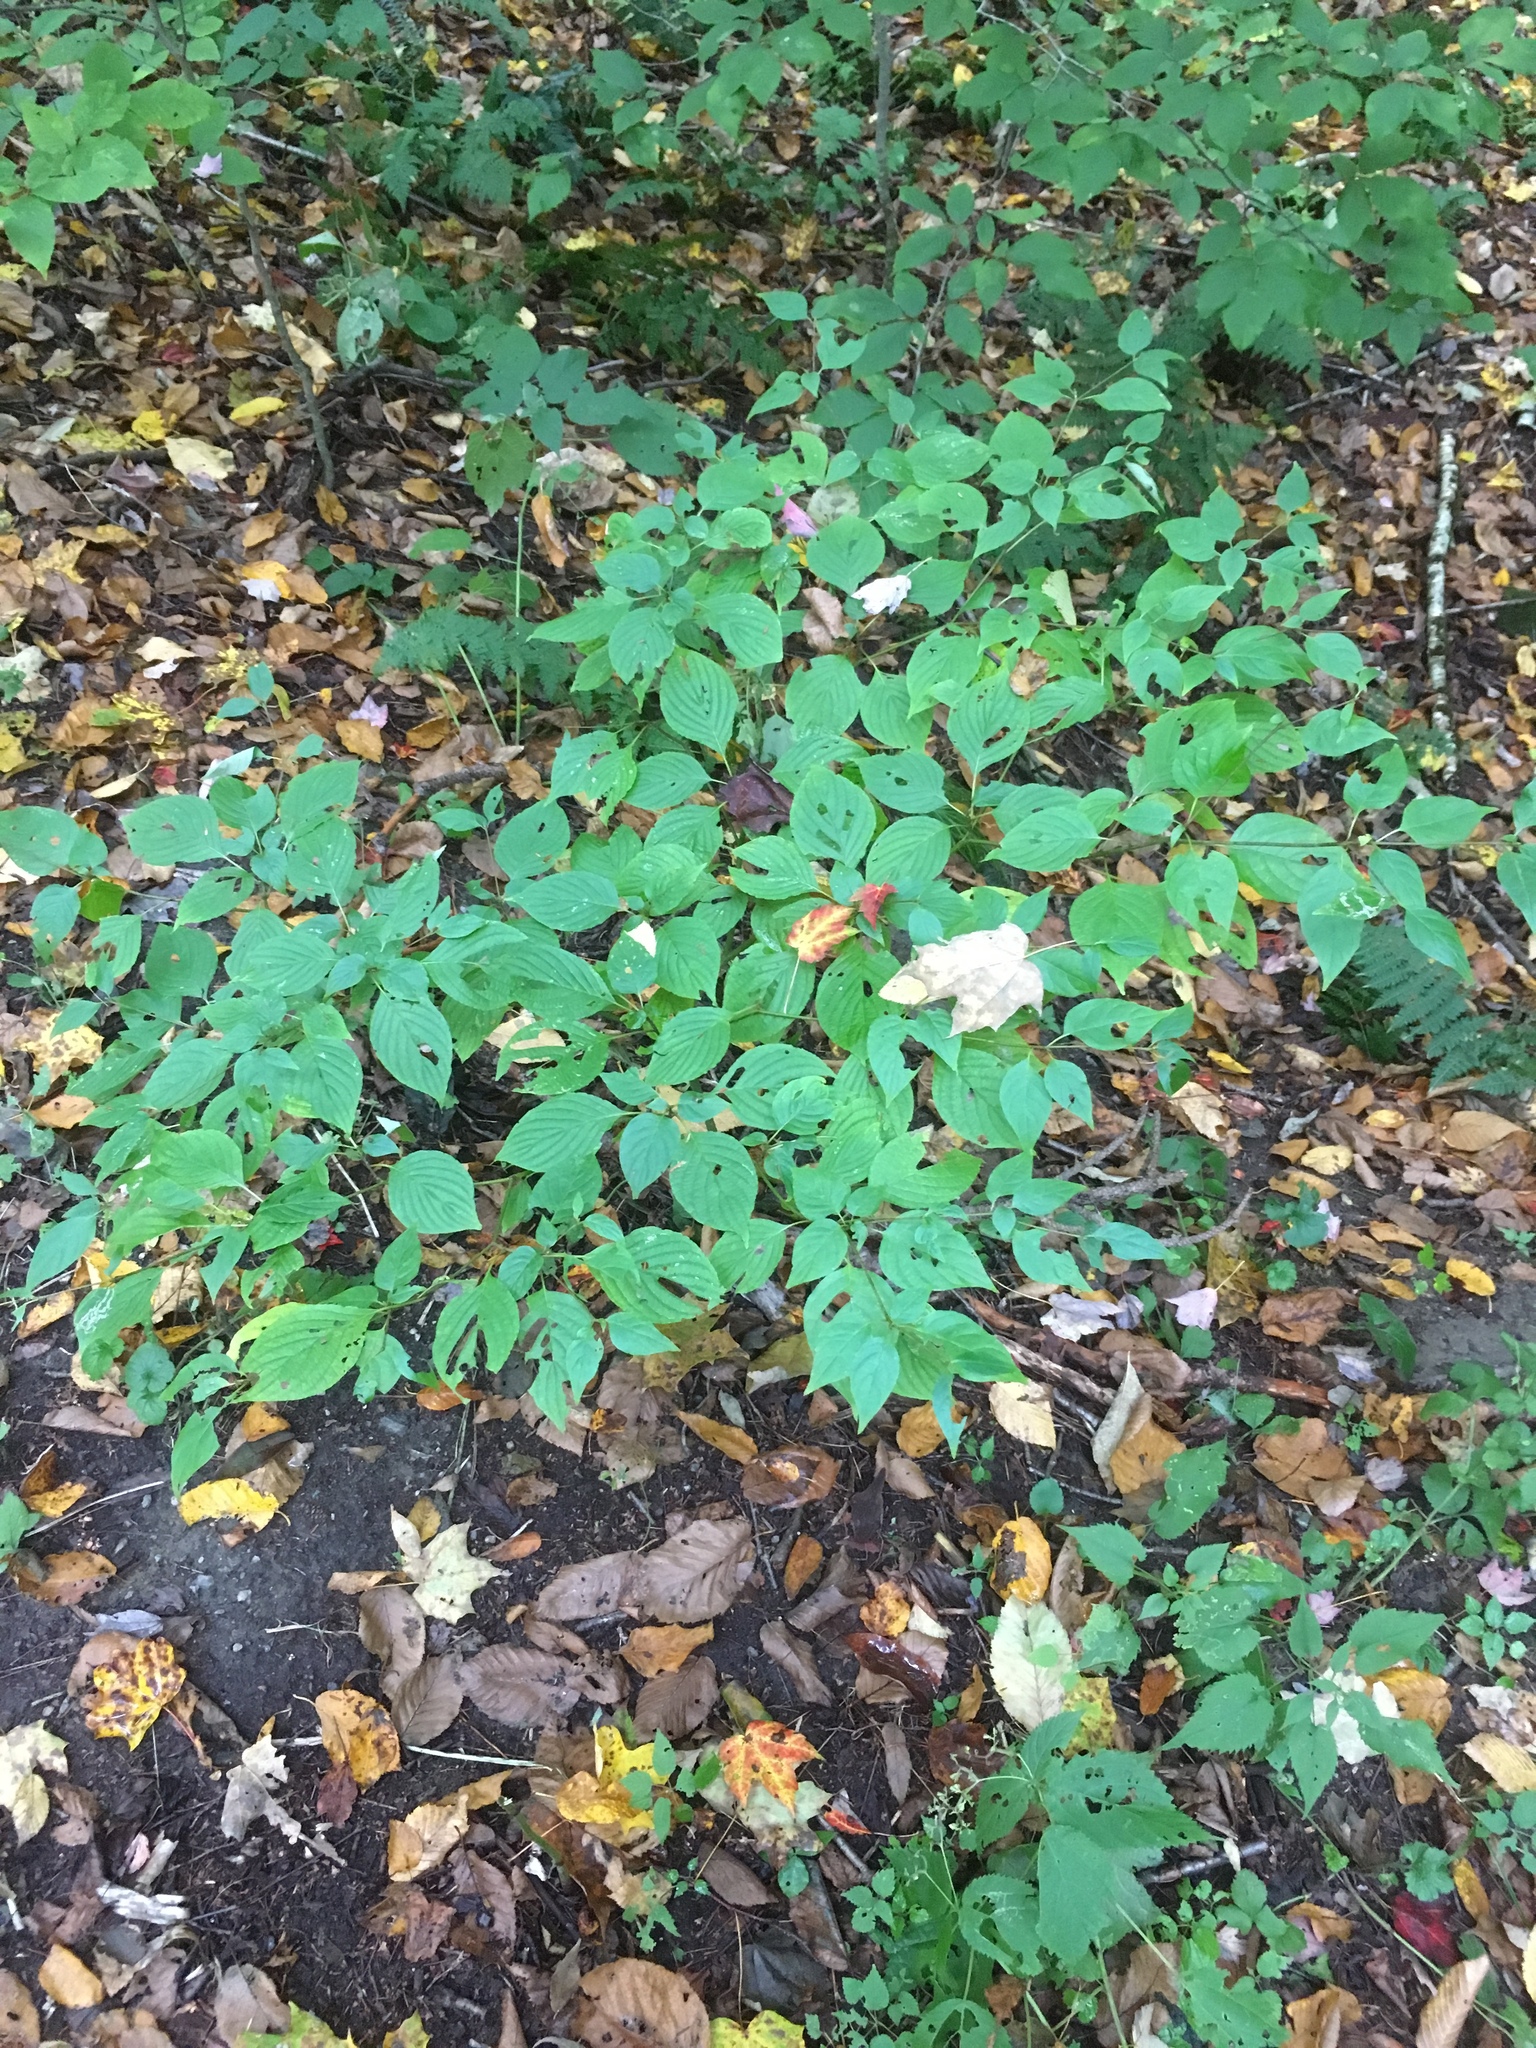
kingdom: Plantae
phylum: Tracheophyta
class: Magnoliopsida
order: Cornales
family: Cornaceae
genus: Cornus
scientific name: Cornus alternifolia
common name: Pagoda dogwood
